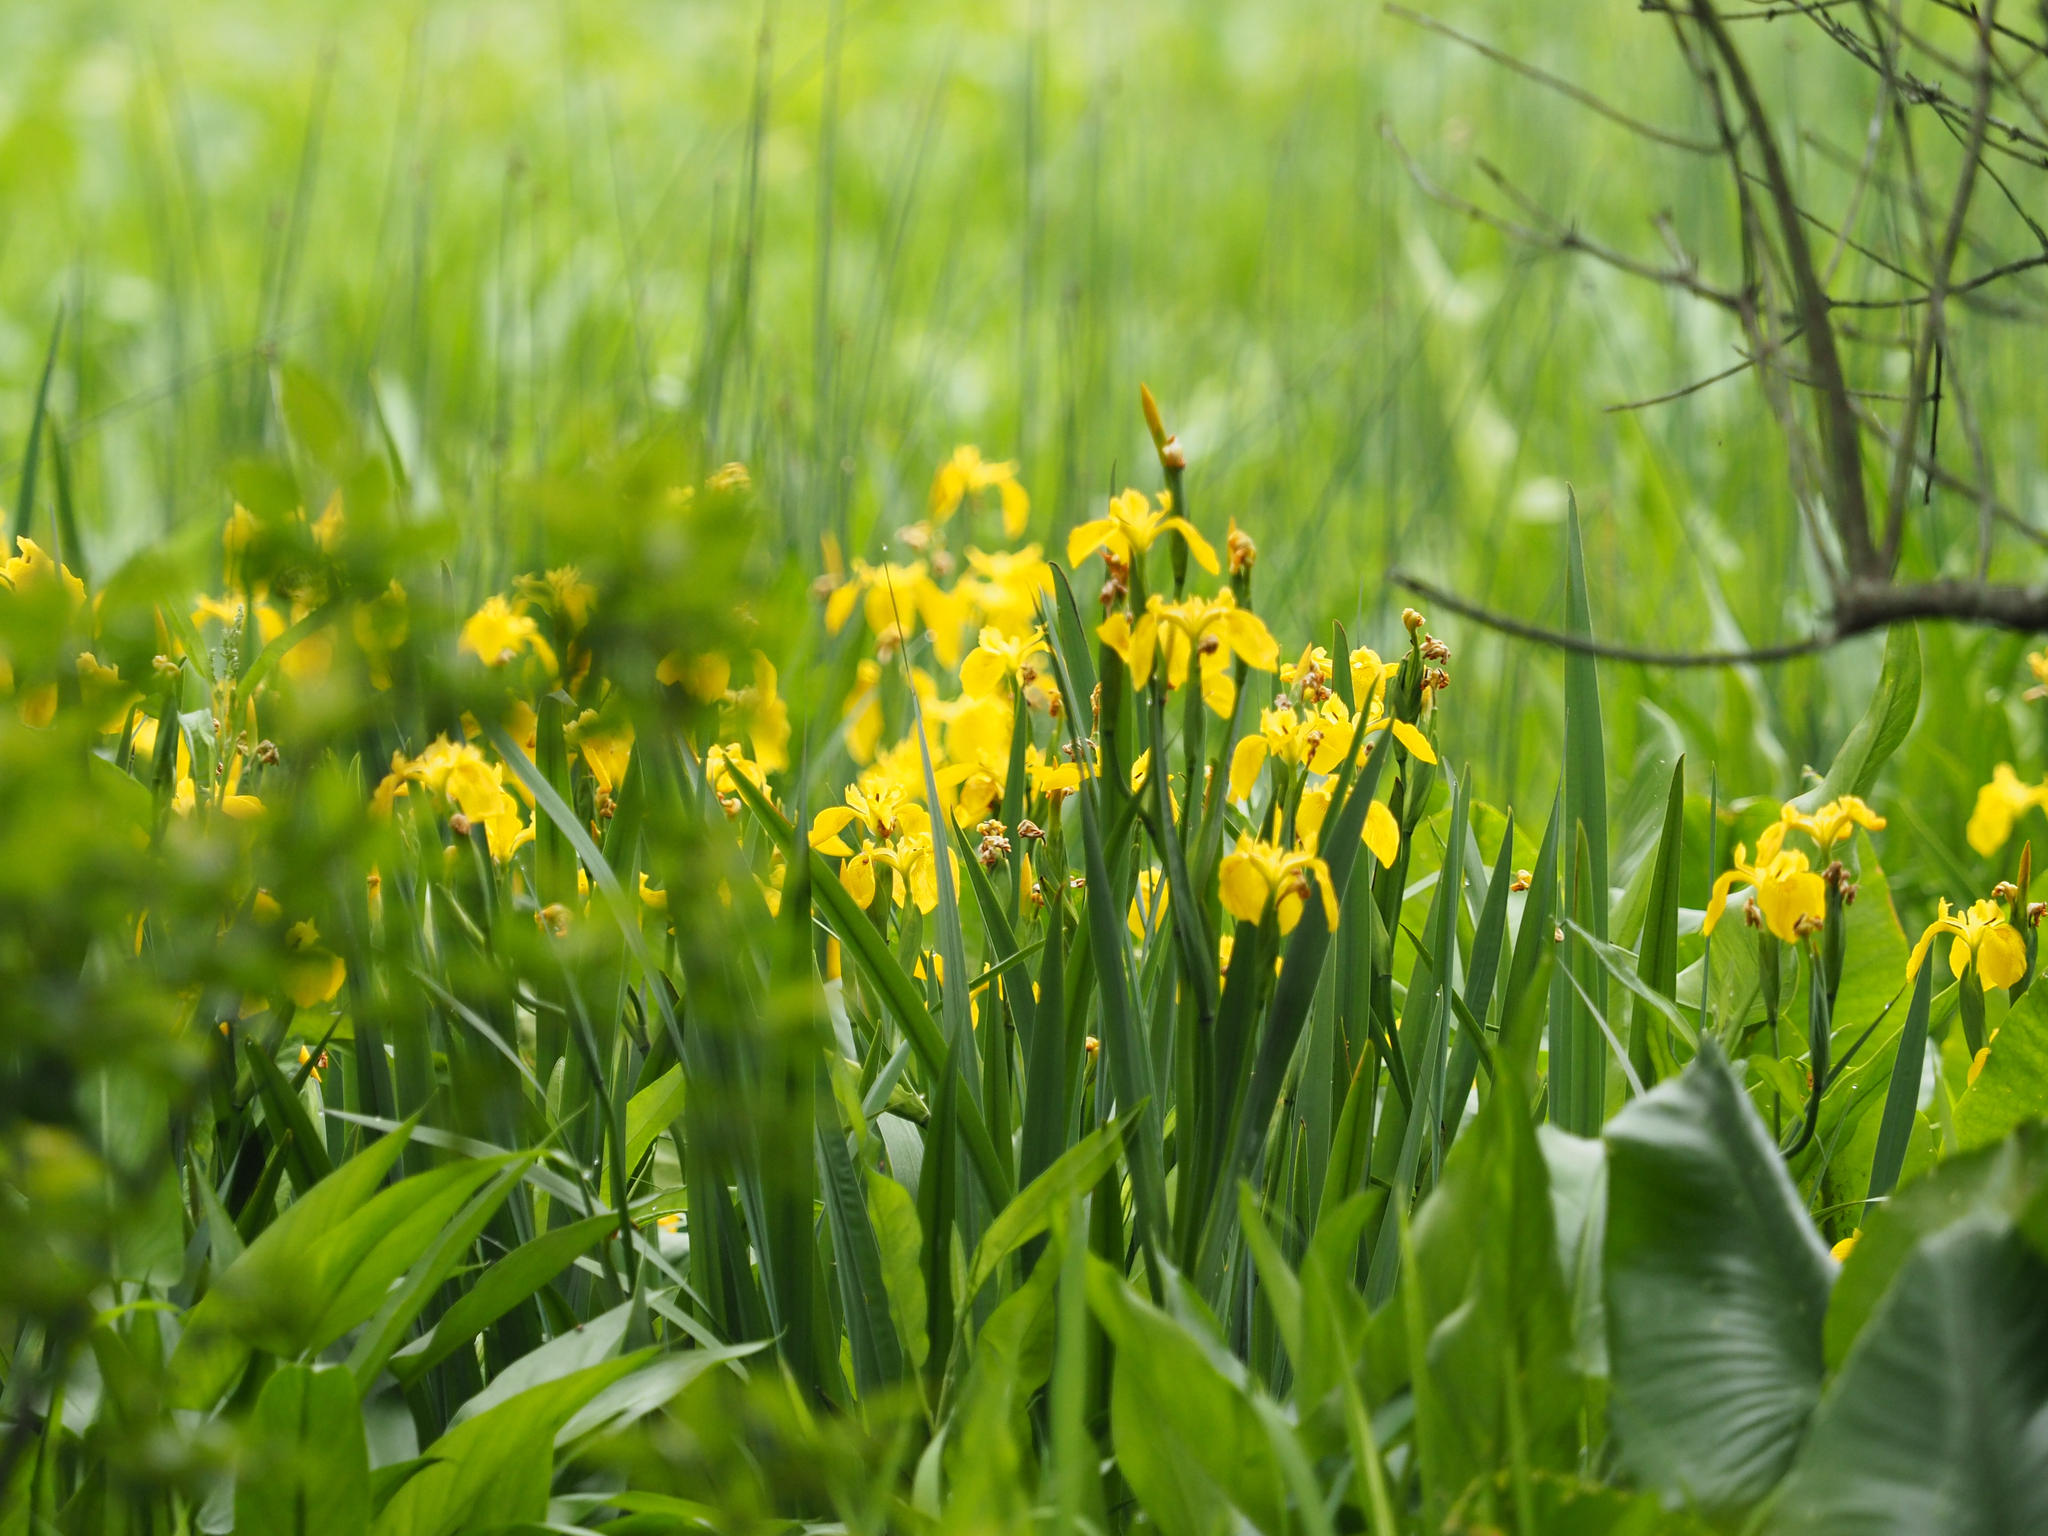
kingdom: Plantae
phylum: Tracheophyta
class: Liliopsida
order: Asparagales
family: Iridaceae
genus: Iris
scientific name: Iris pseudacorus
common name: Yellow flag
